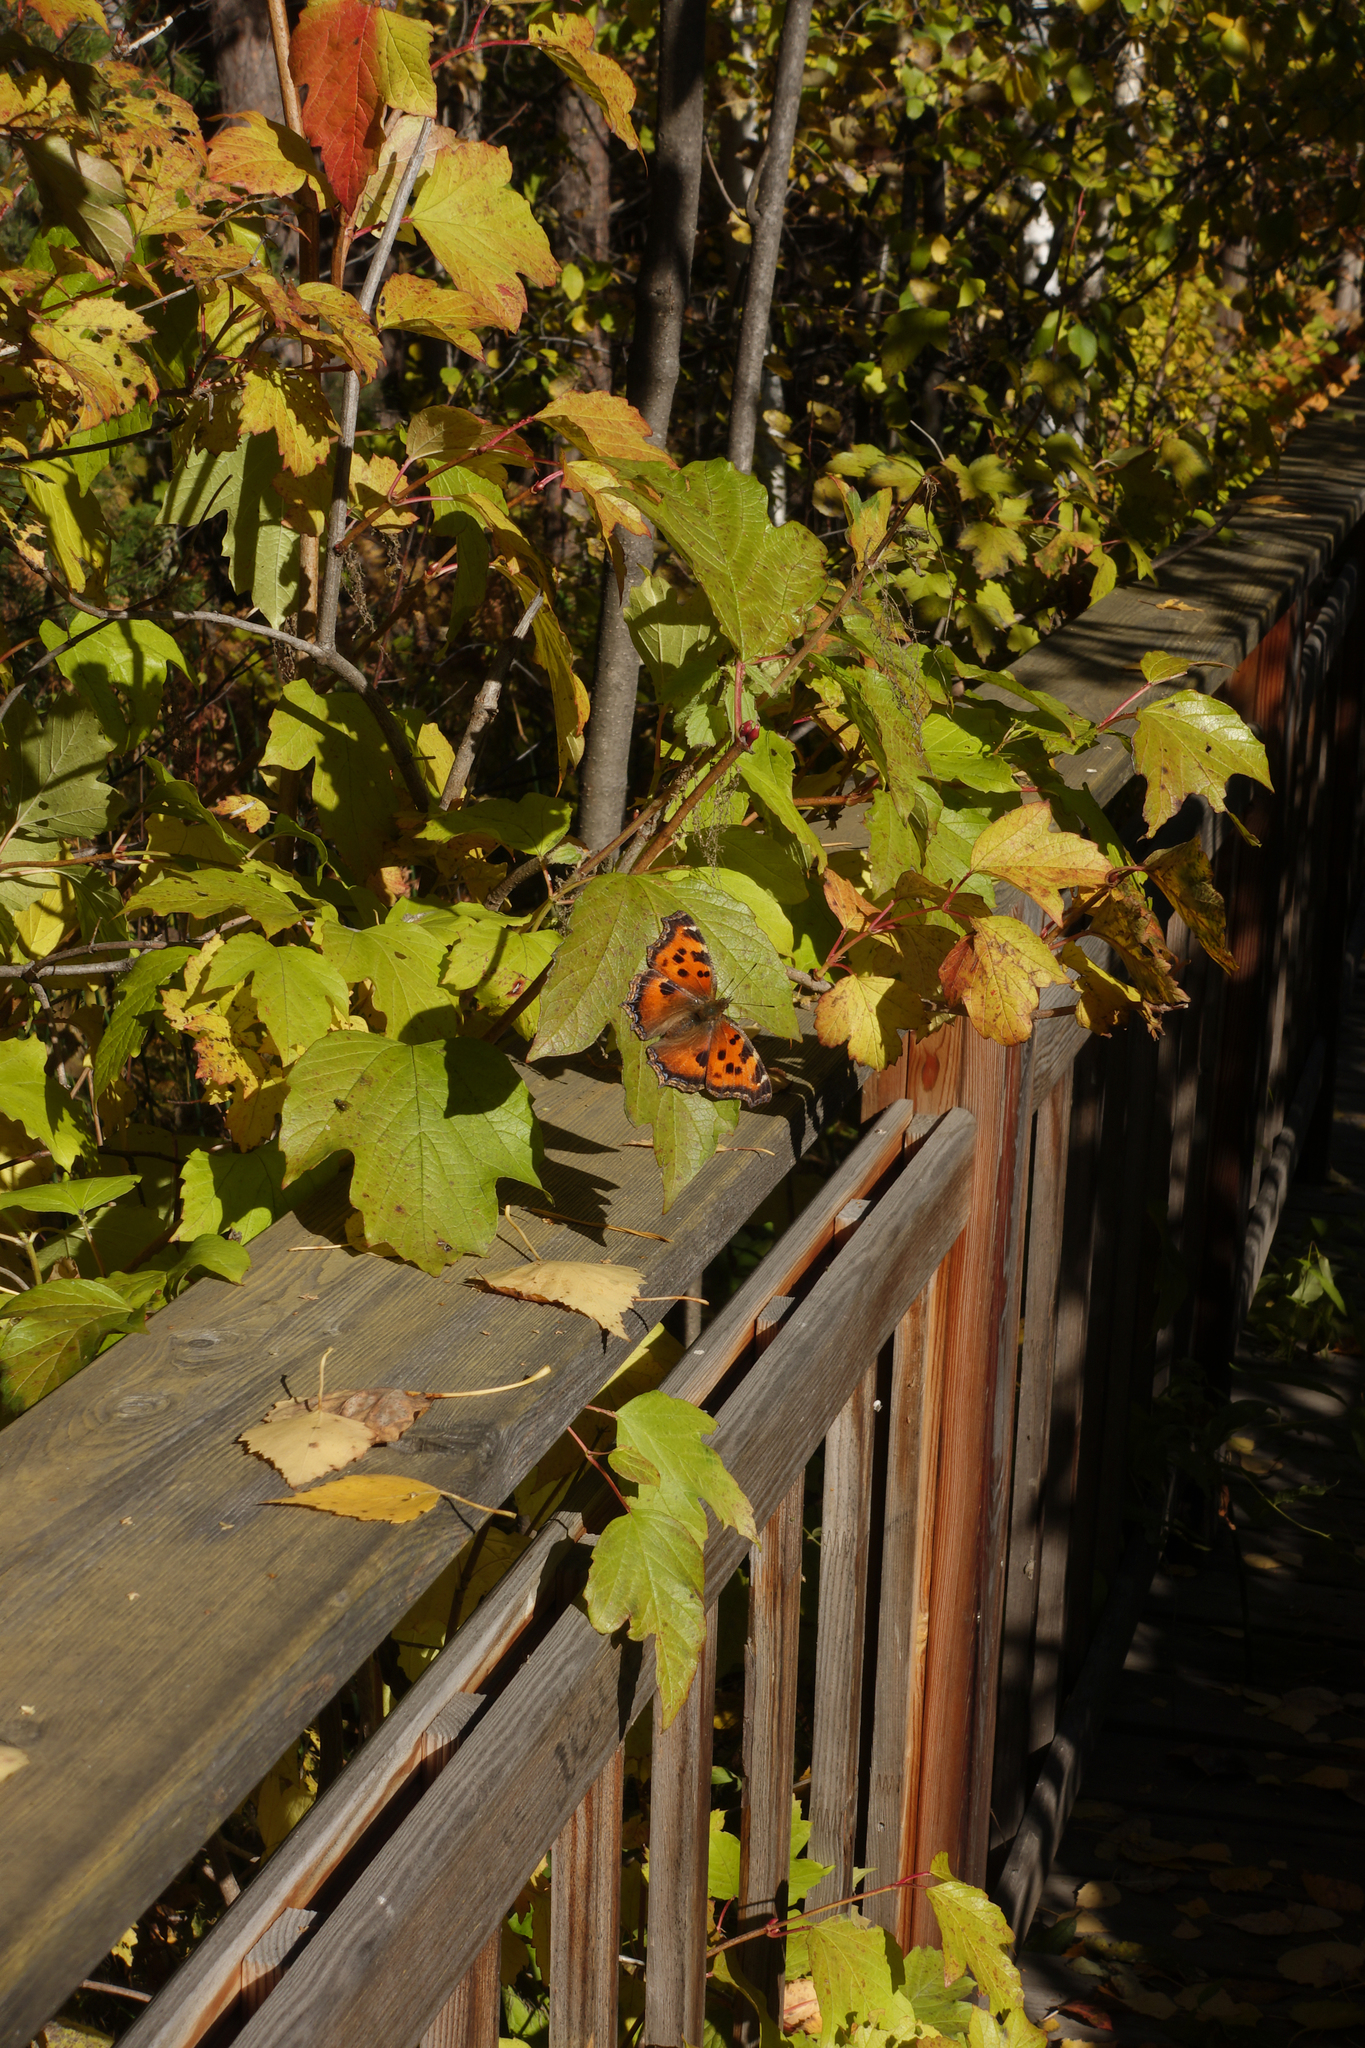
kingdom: Animalia
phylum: Arthropoda
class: Insecta
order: Lepidoptera
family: Nymphalidae
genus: Nymphalis
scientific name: Nymphalis xanthomelas
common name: Scarce tortoiseshell
